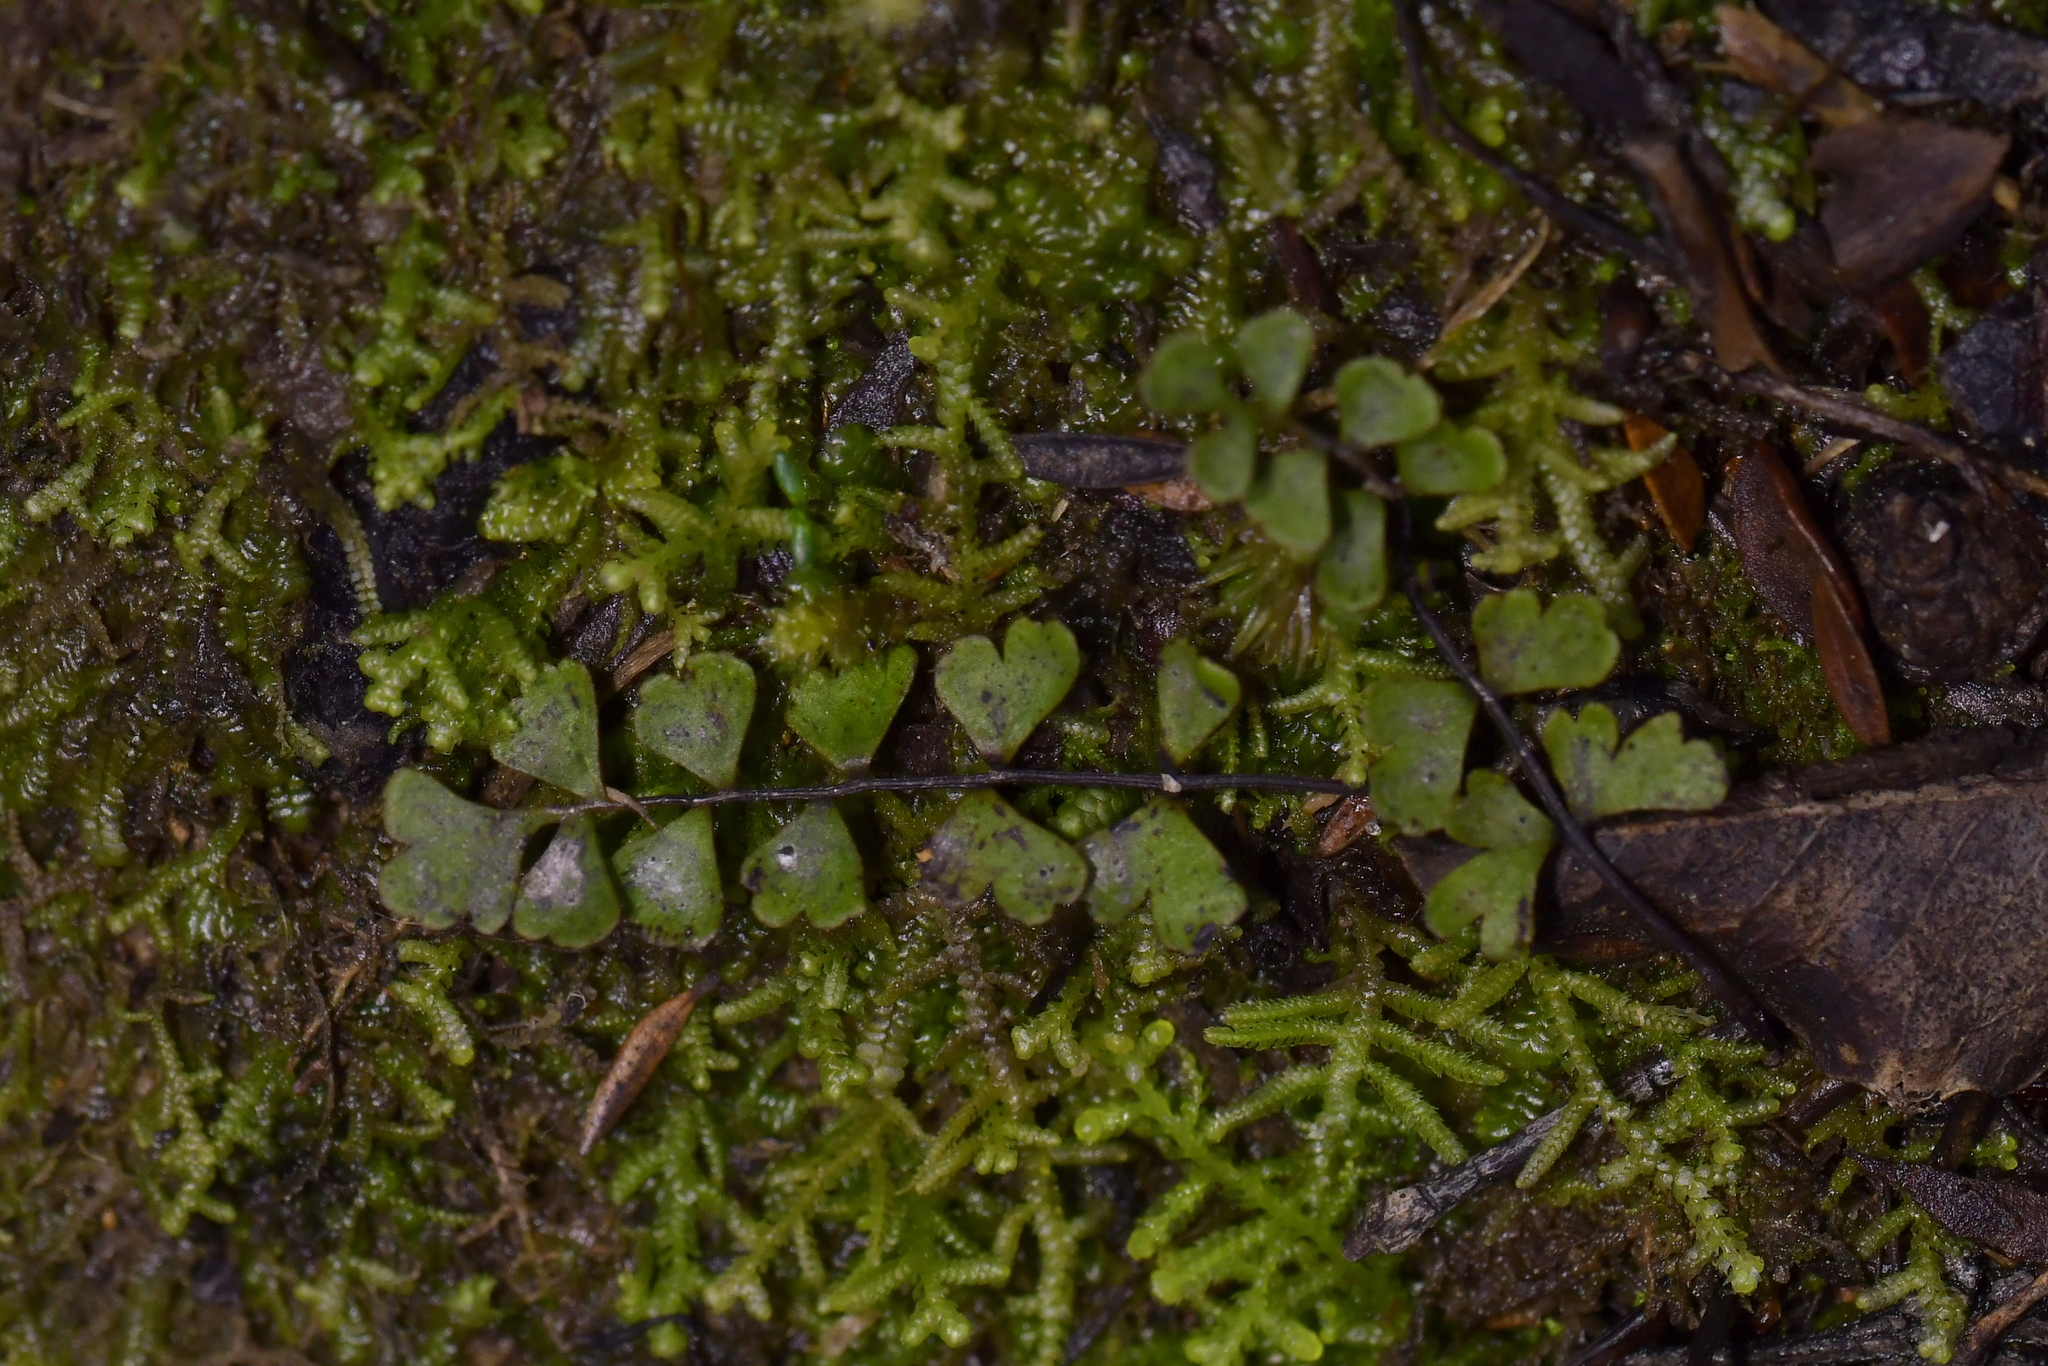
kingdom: Plantae
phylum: Tracheophyta
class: Polypodiopsida
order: Polypodiales
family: Lindsaeaceae
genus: Lindsaea
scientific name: Lindsaea linearis
